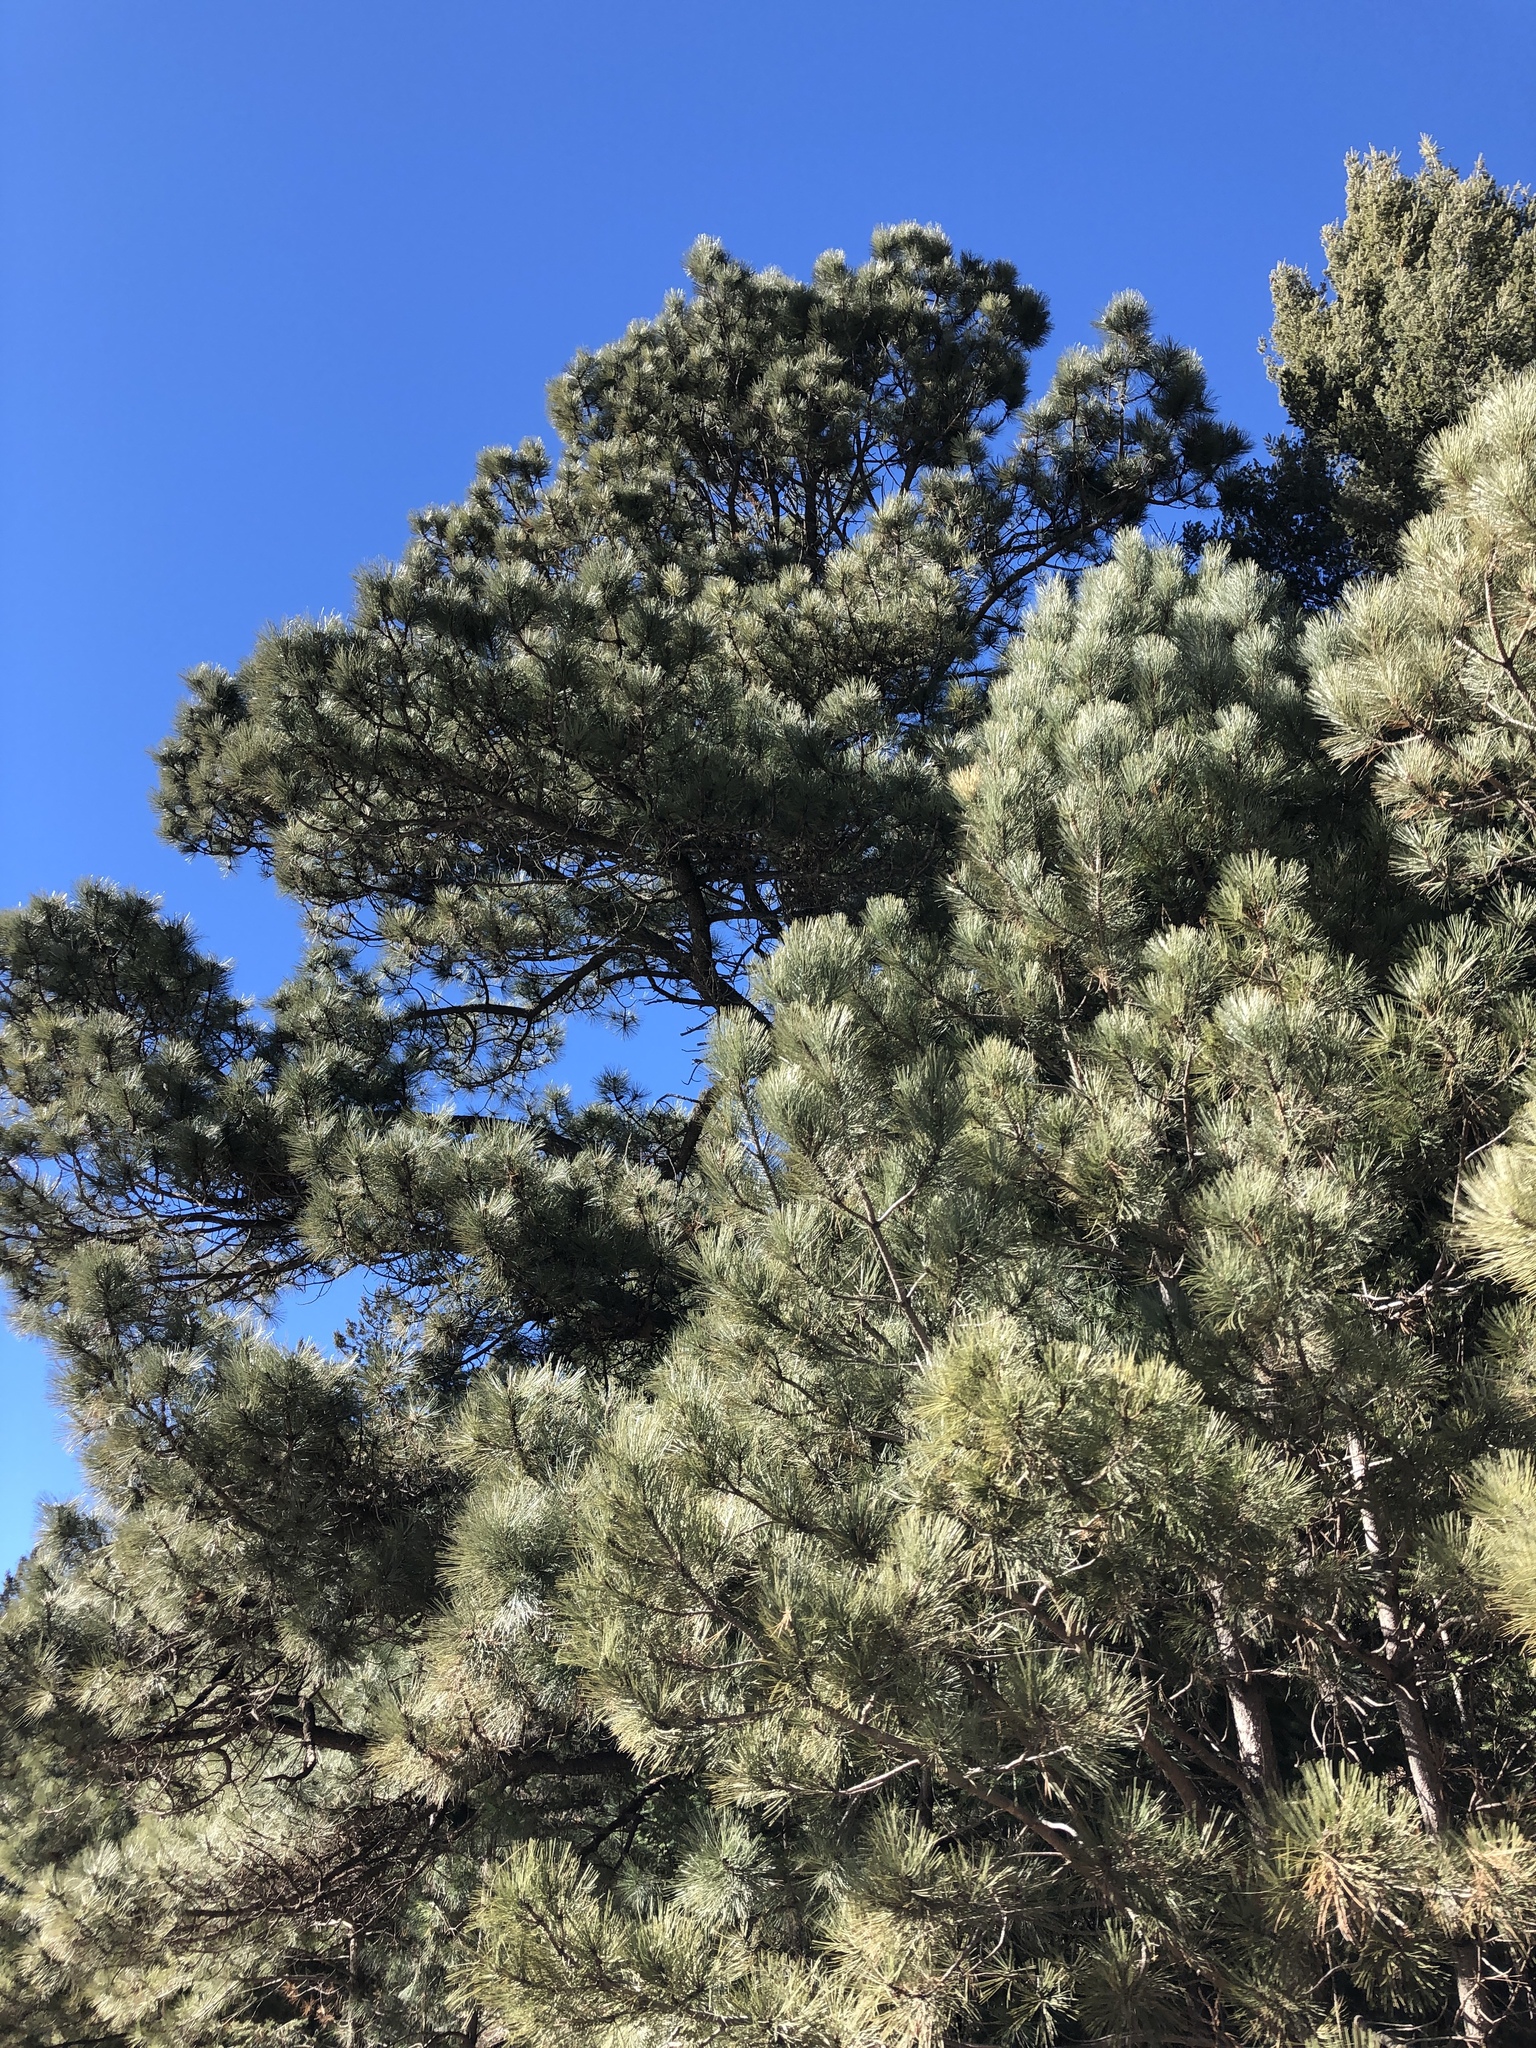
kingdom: Plantae
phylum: Tracheophyta
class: Pinopsida
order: Pinales
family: Pinaceae
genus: Pinus
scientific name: Pinus ponderosa
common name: Western yellow-pine
